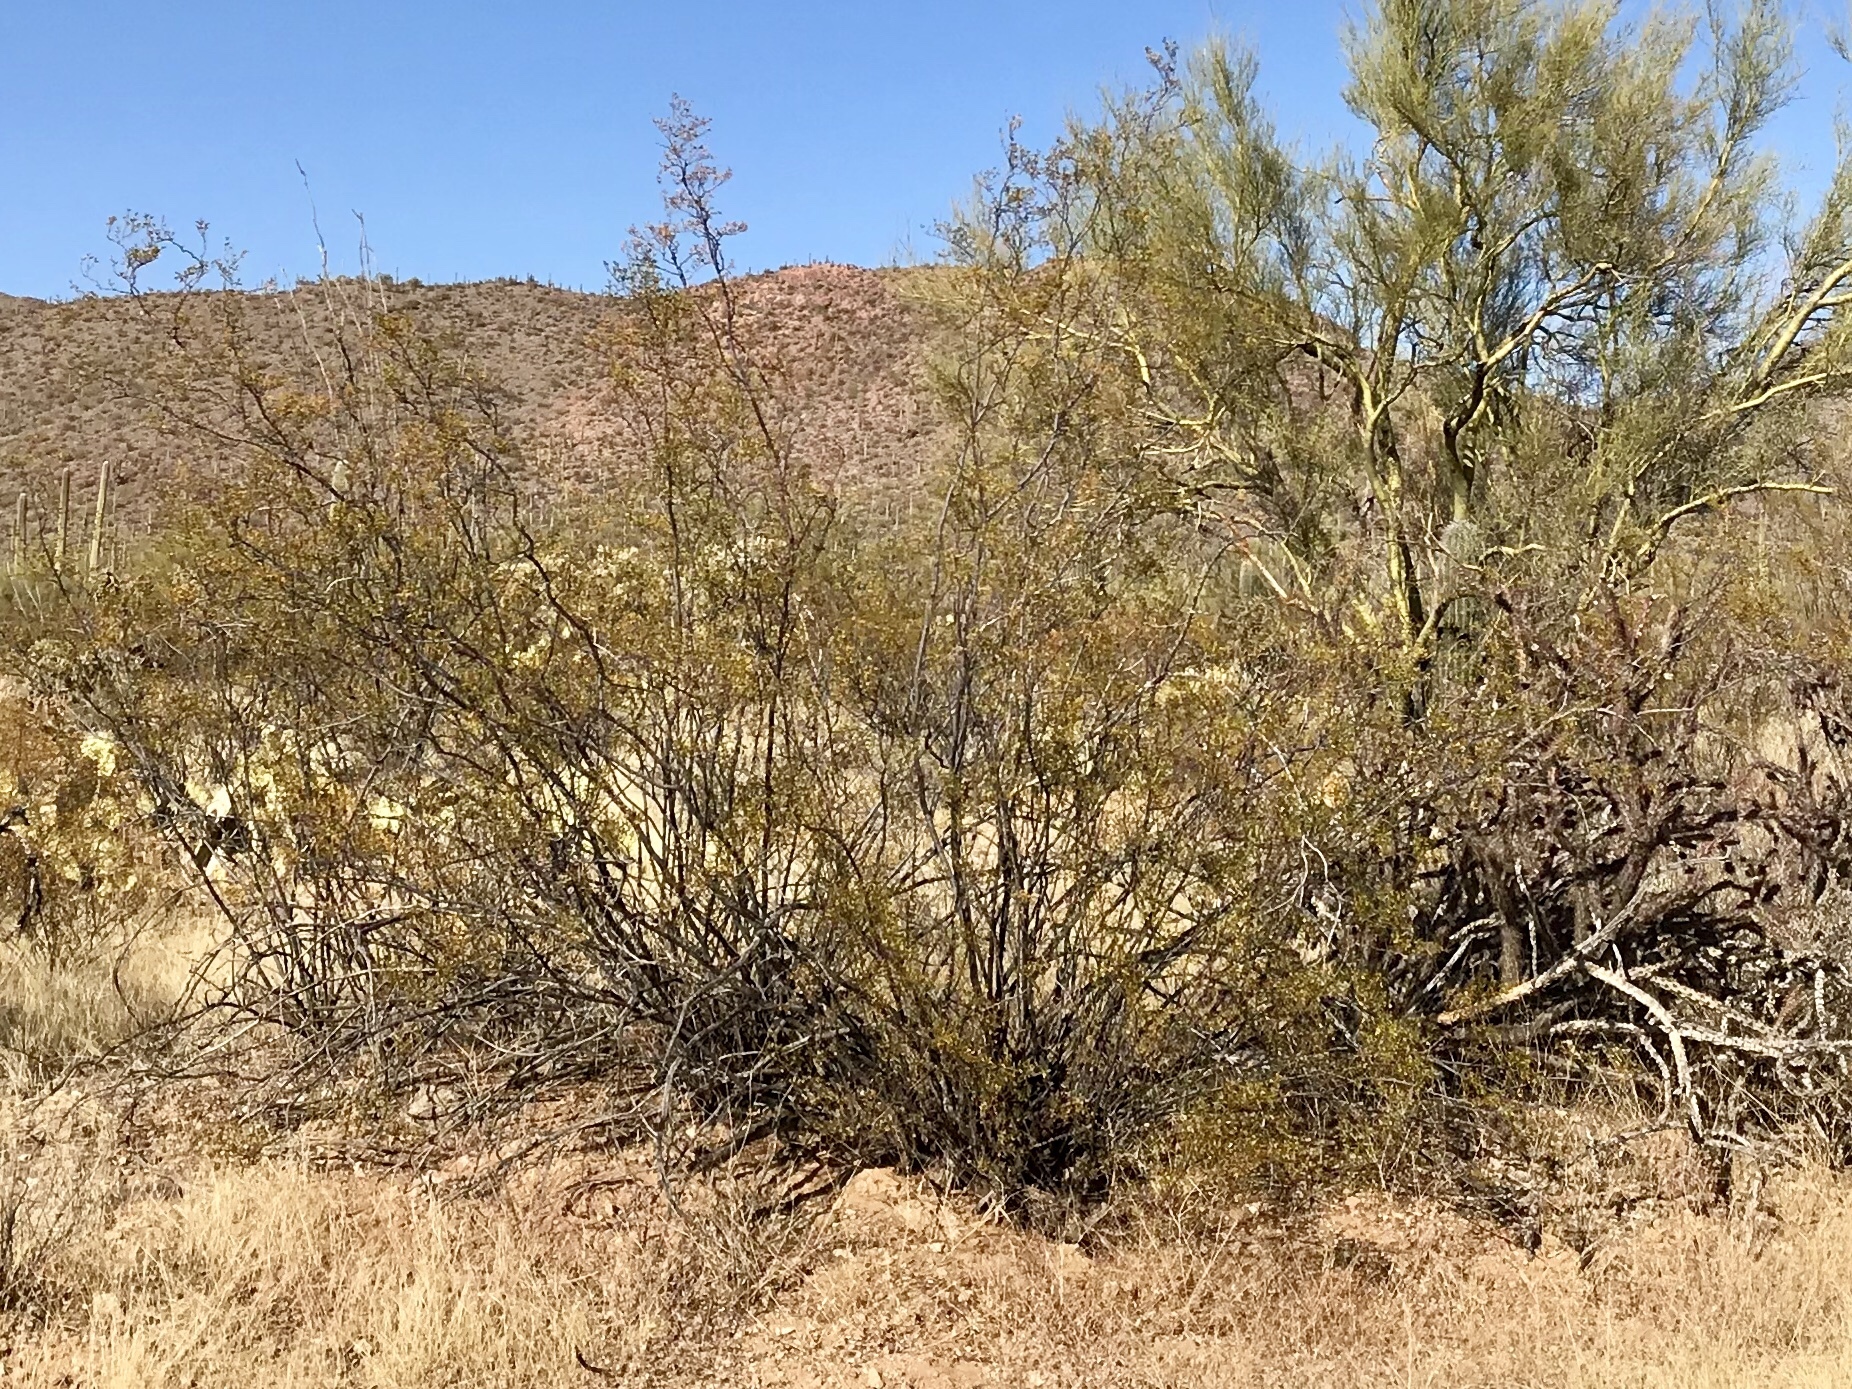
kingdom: Plantae
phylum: Tracheophyta
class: Magnoliopsida
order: Zygophyllales
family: Zygophyllaceae
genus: Larrea
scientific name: Larrea tridentata
